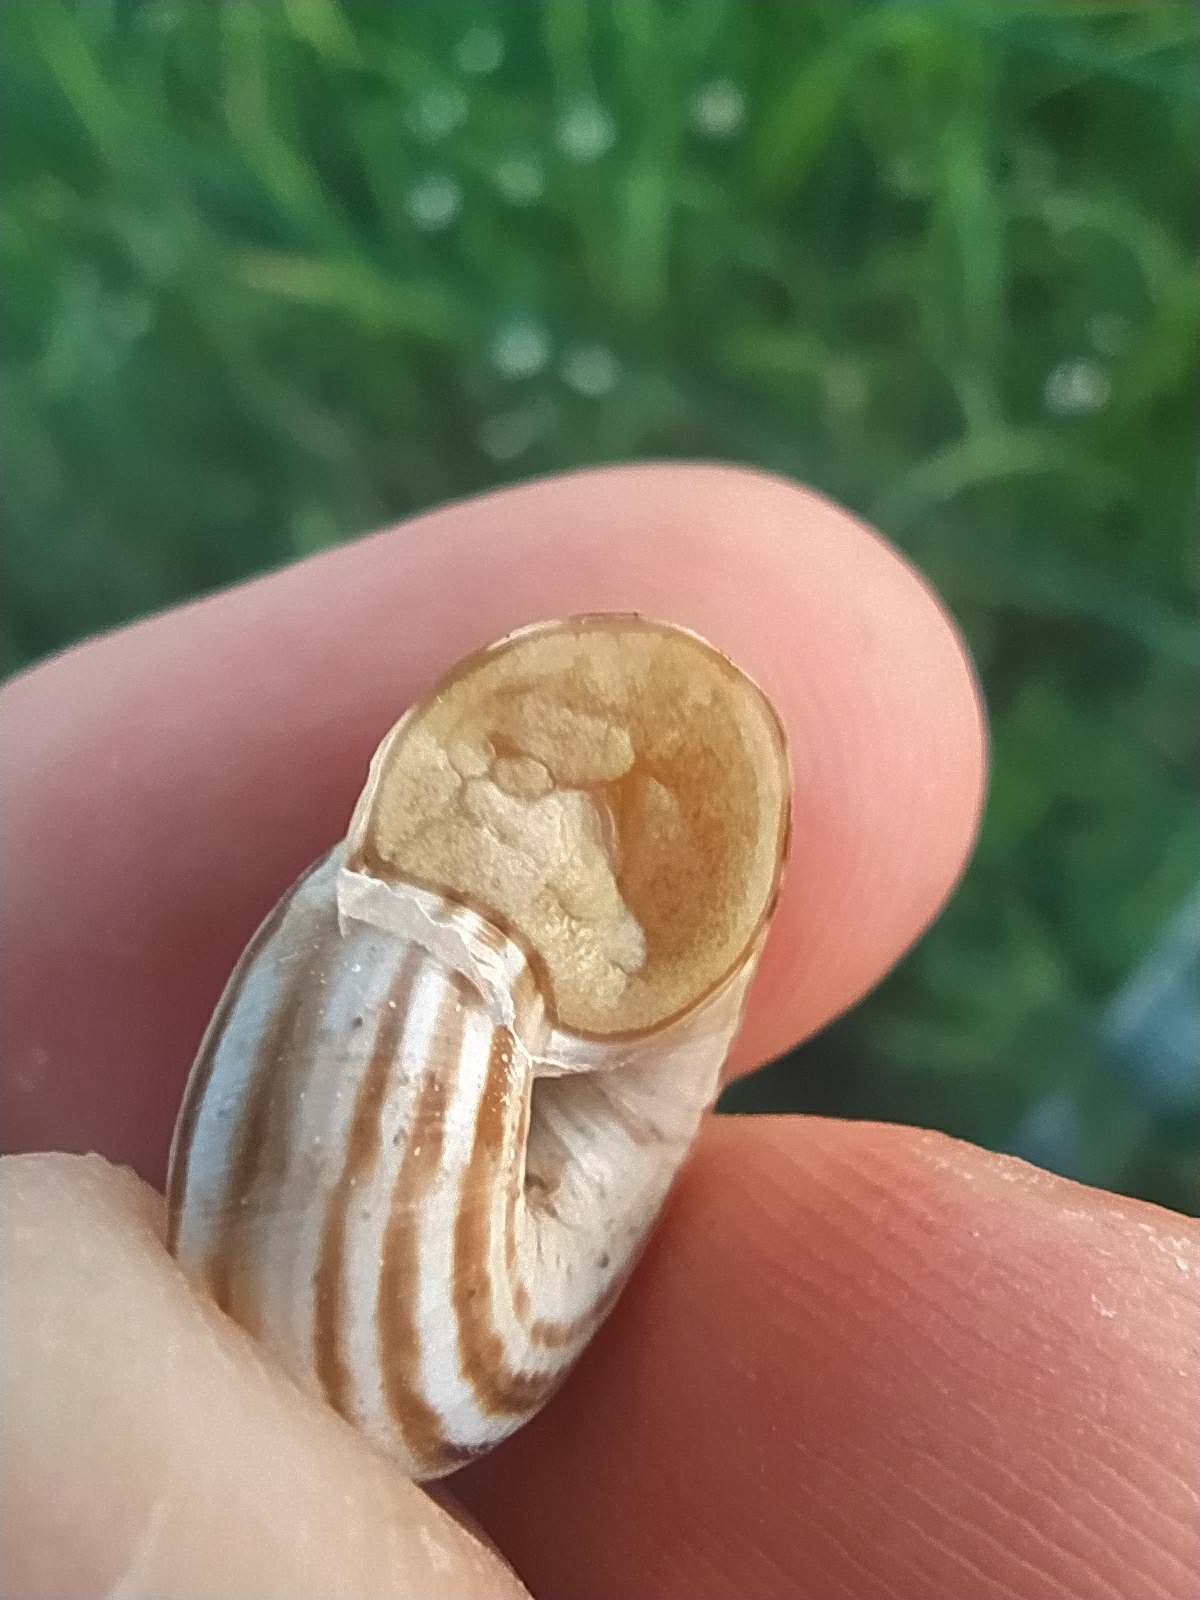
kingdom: Animalia
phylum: Mollusca
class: Gastropoda
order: Stylommatophora
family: Geomitridae
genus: Xeropicta
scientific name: Xeropicta derbentina
